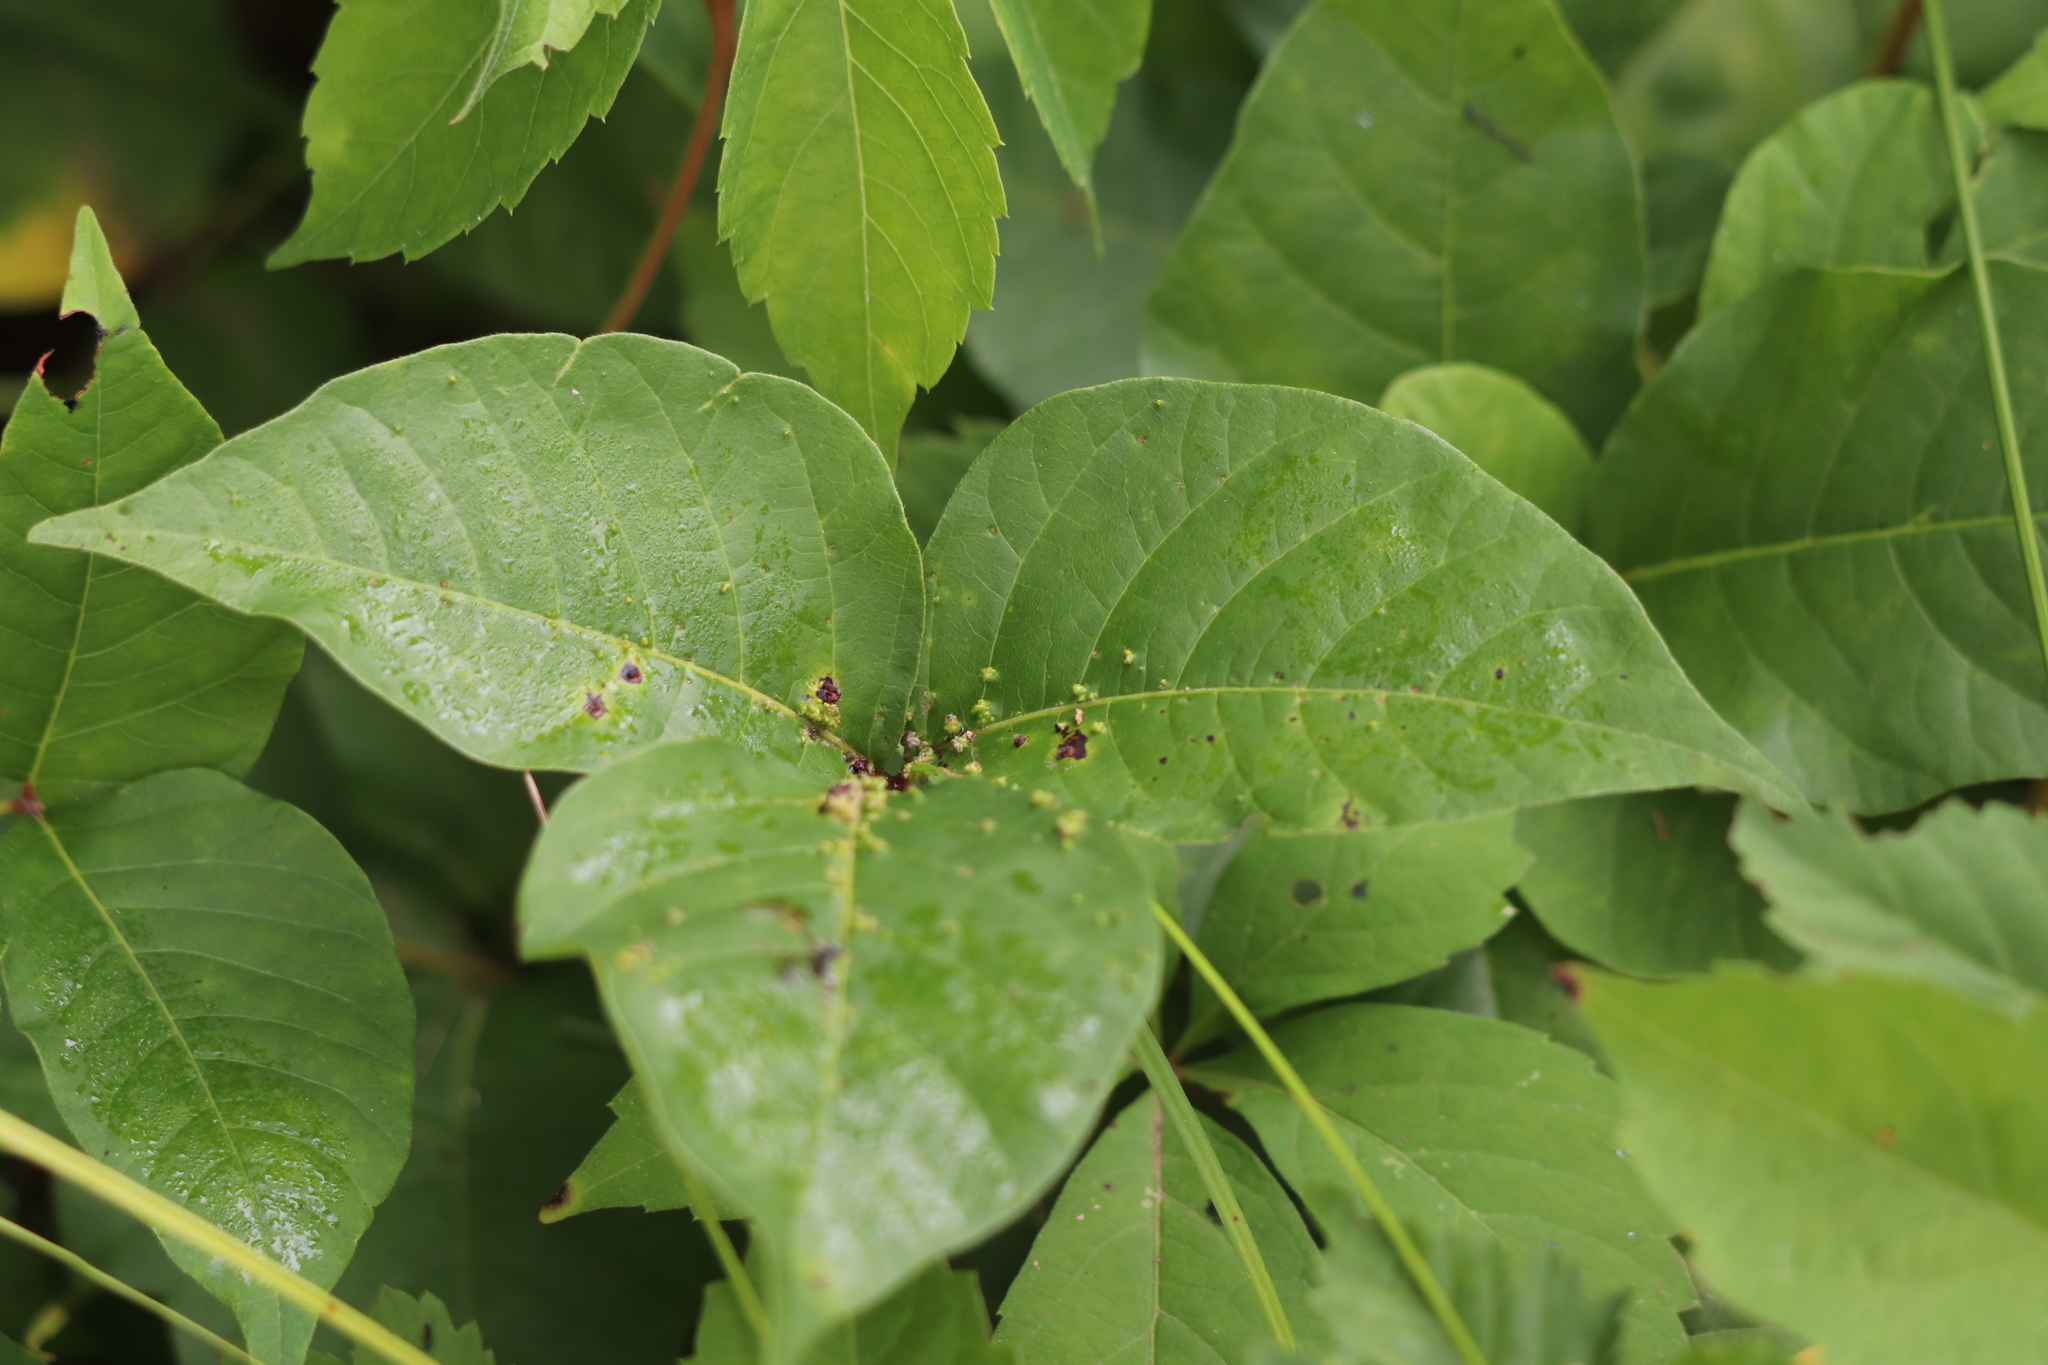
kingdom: Animalia
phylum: Arthropoda
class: Arachnida
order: Trombidiformes
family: Eriophyidae
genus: Aculops
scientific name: Aculops
